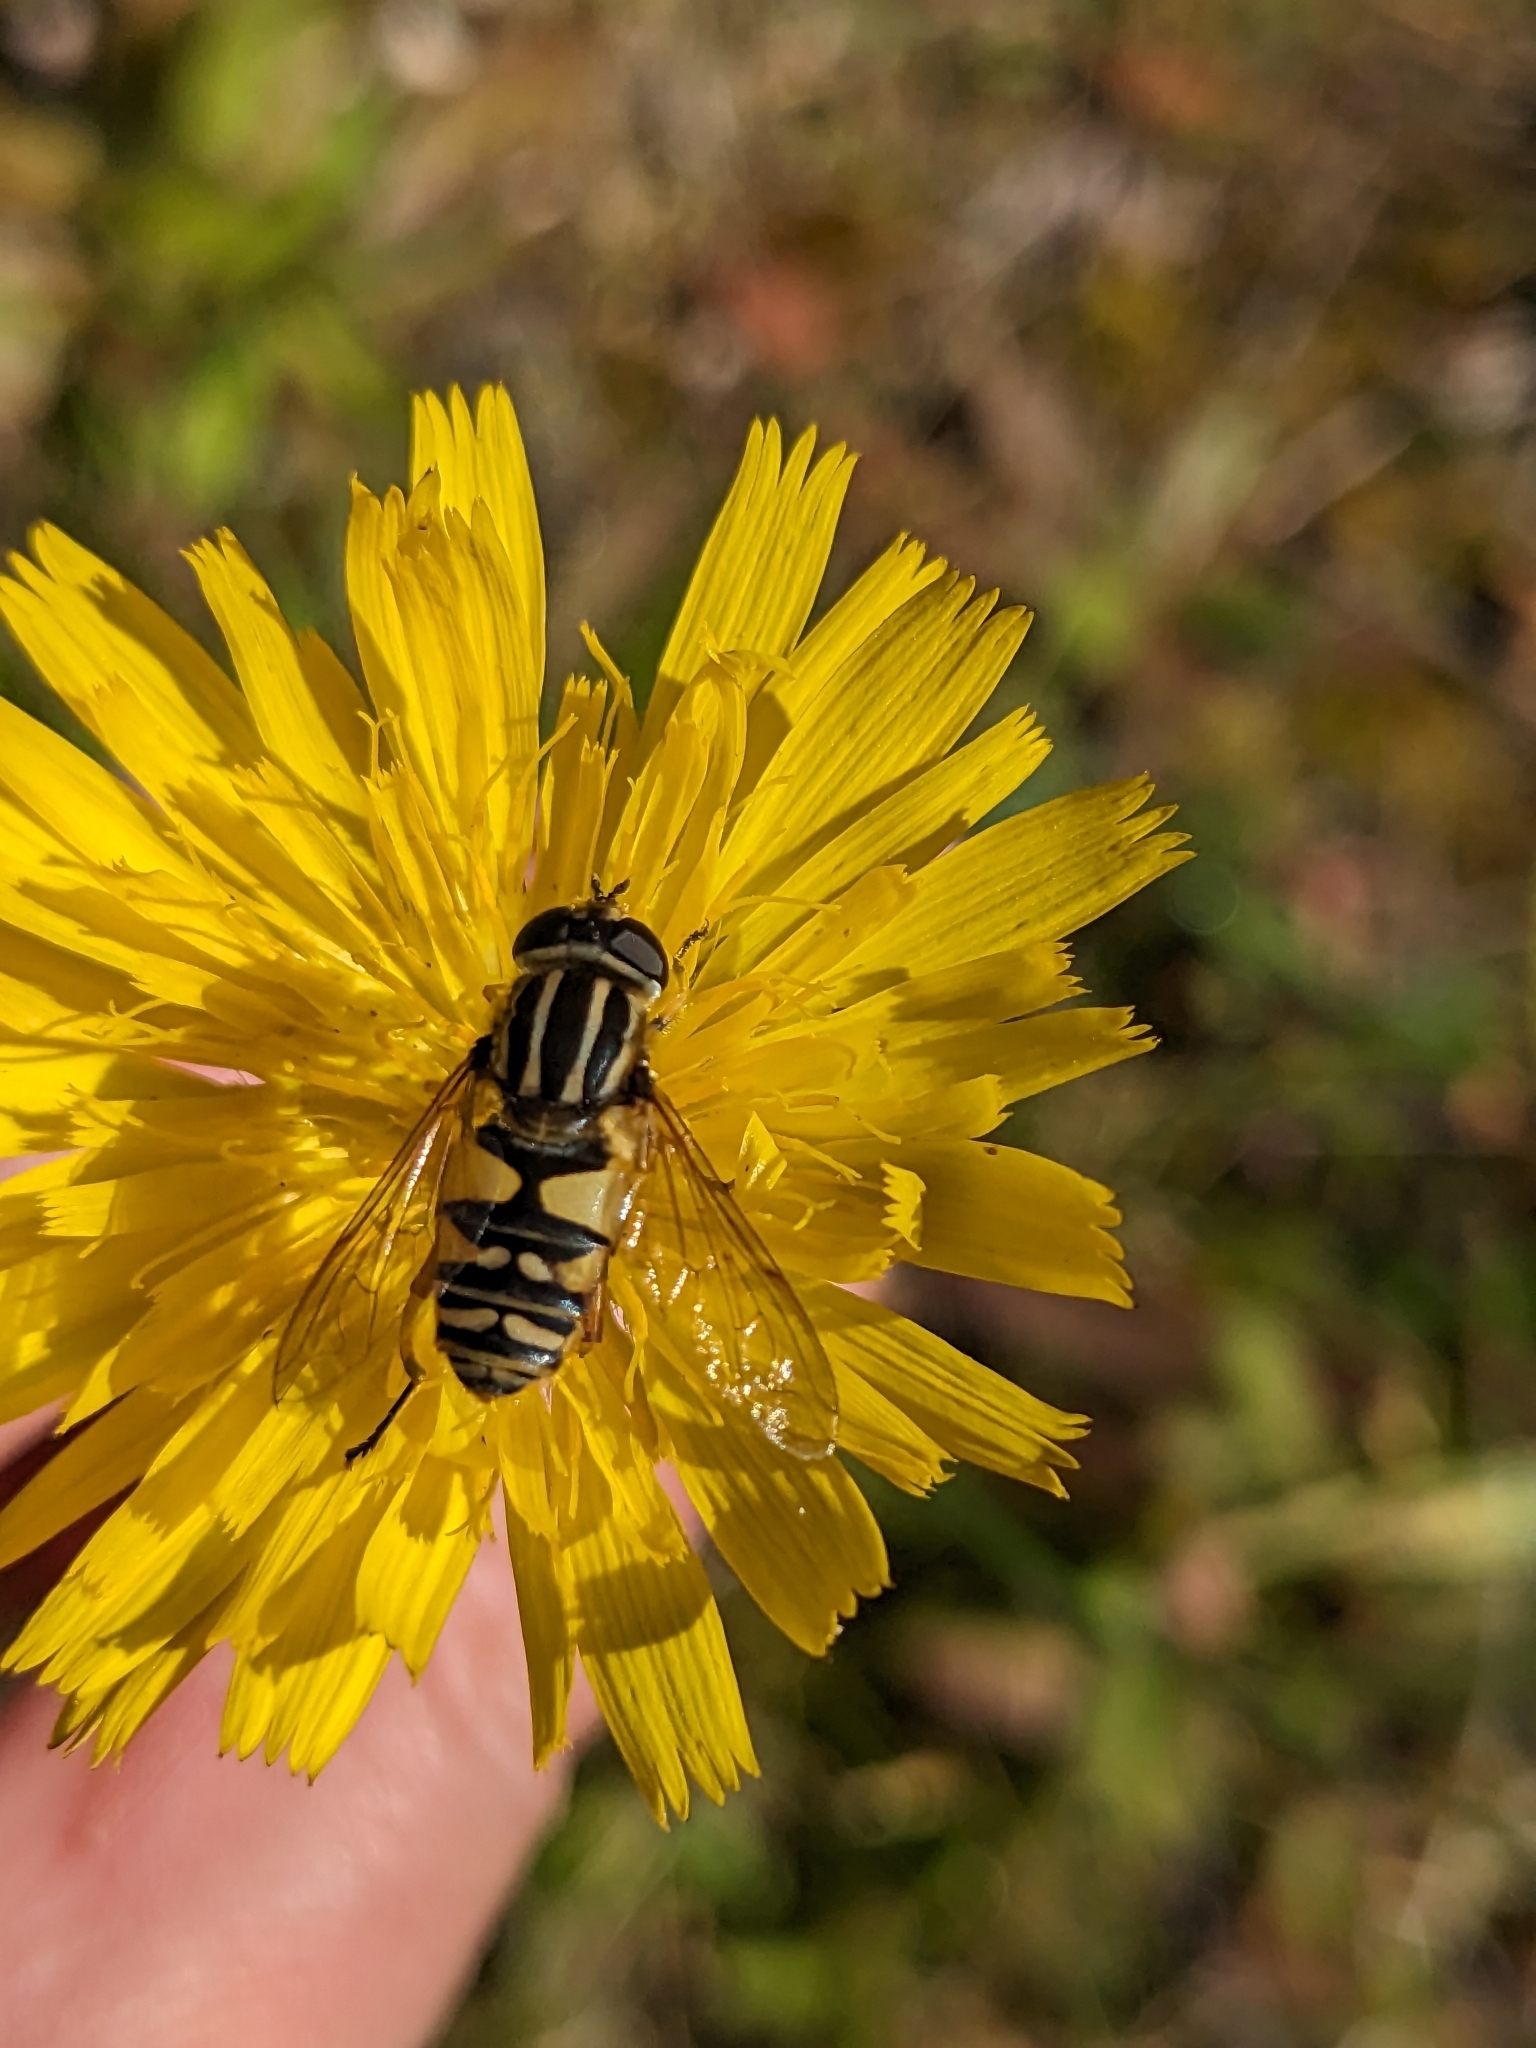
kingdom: Animalia
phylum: Arthropoda
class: Insecta
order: Diptera
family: Syrphidae
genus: Helophilus
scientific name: Helophilus pendulus
